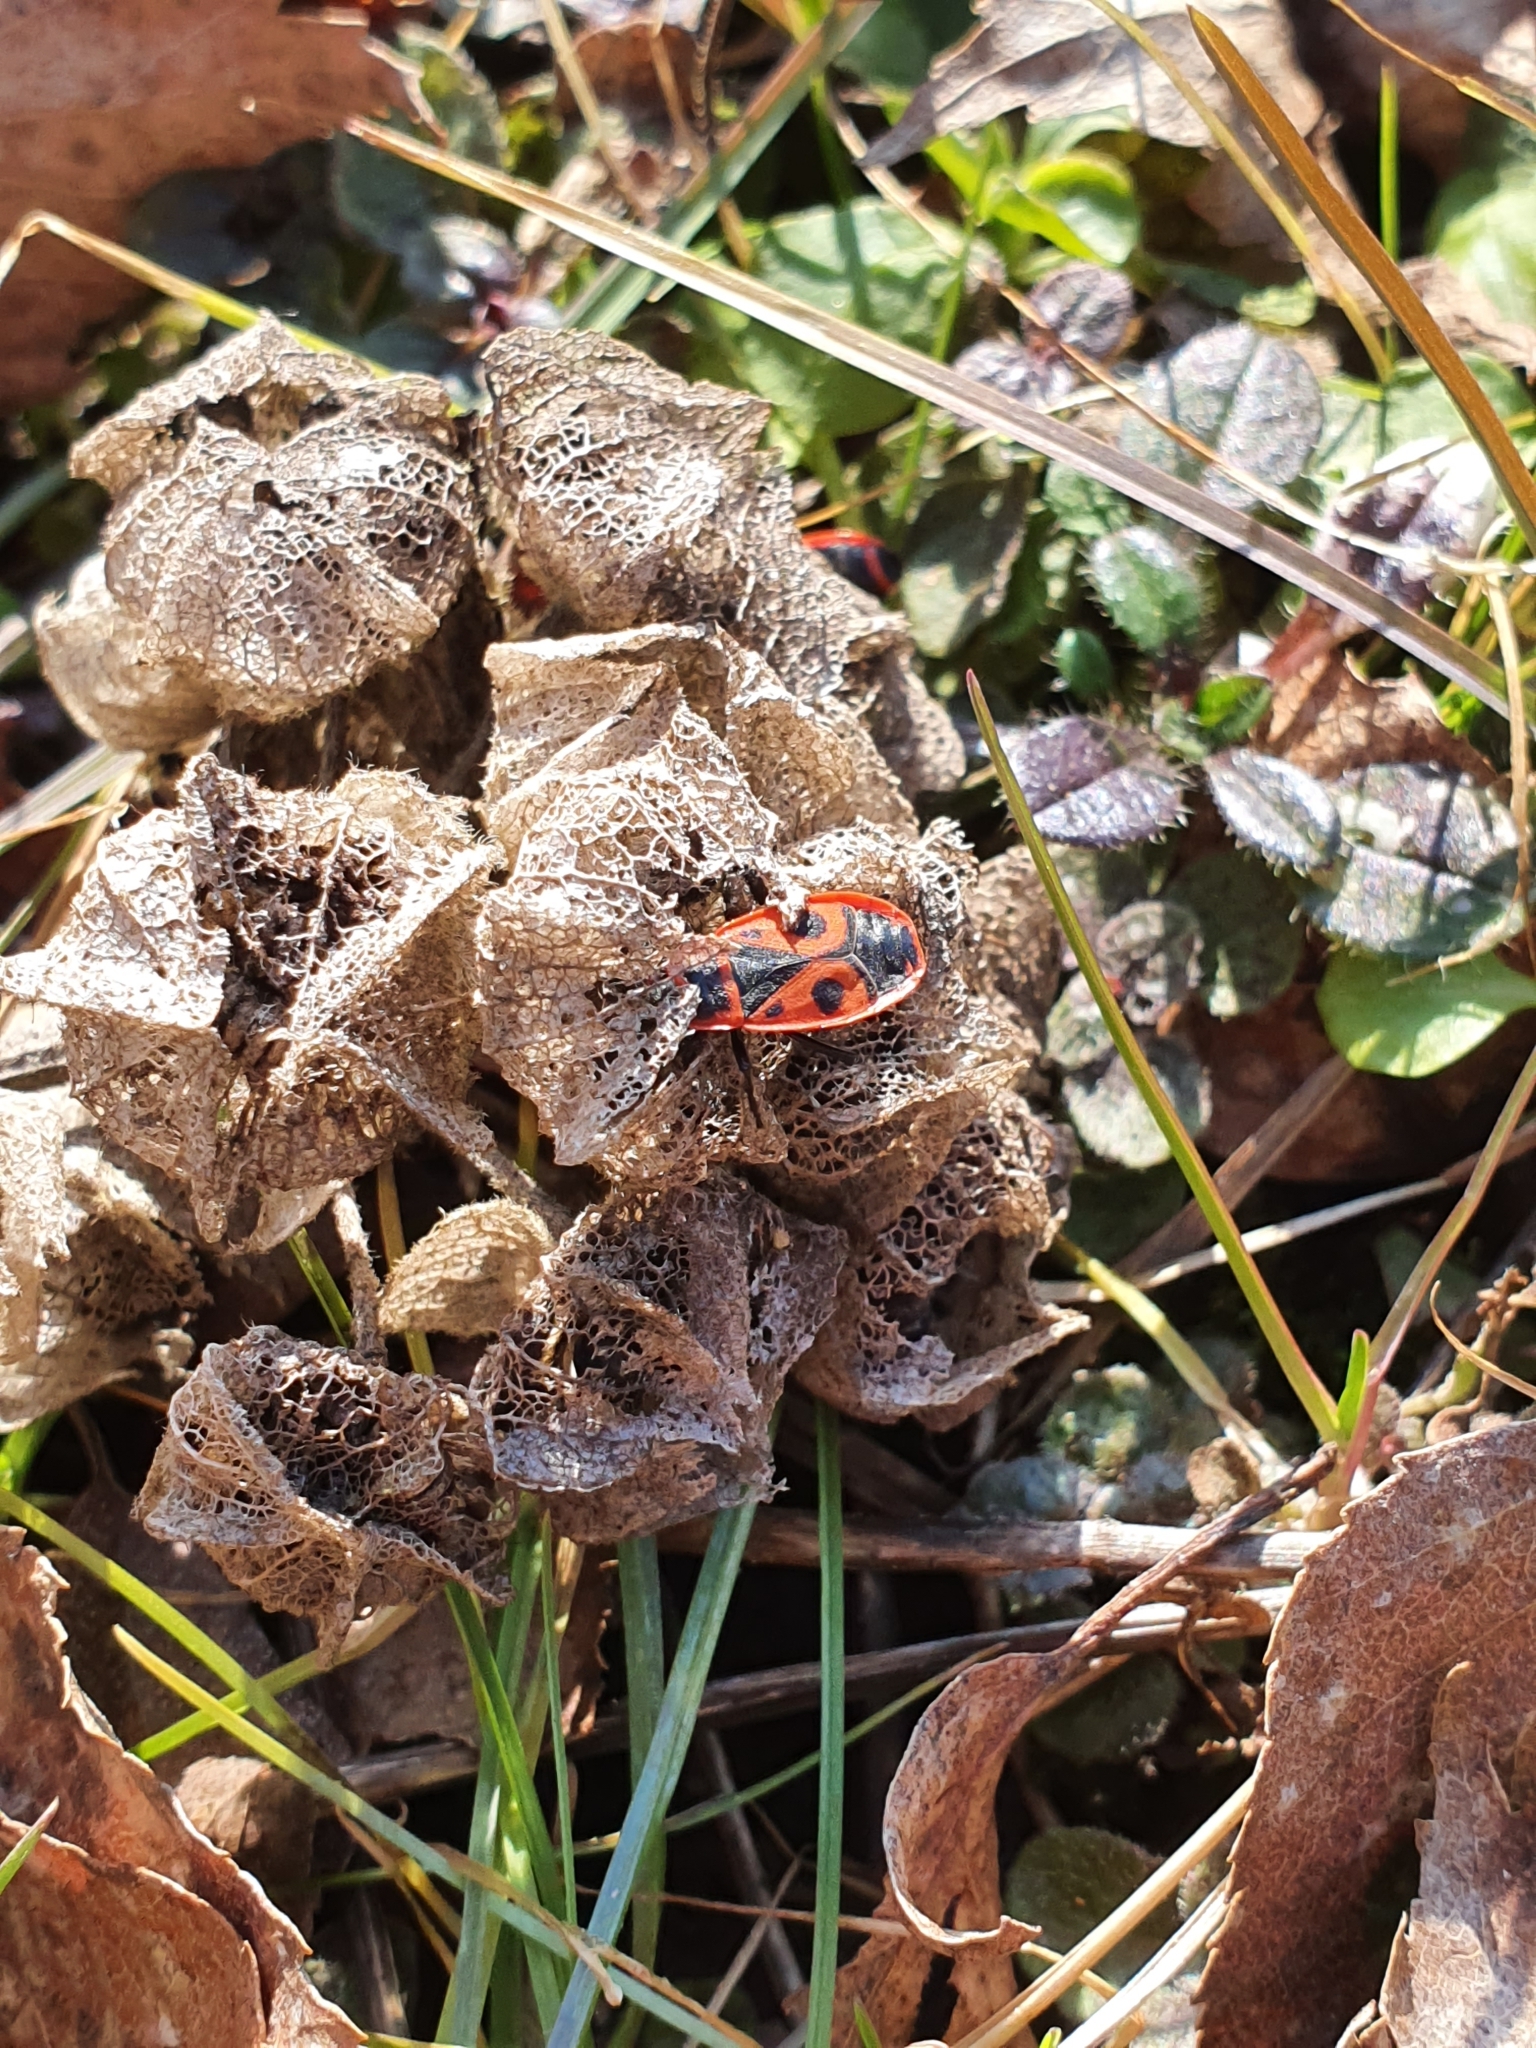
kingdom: Animalia
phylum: Arthropoda
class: Insecta
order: Hemiptera
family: Pyrrhocoridae
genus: Pyrrhocoris
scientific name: Pyrrhocoris apterus
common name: Firebug
